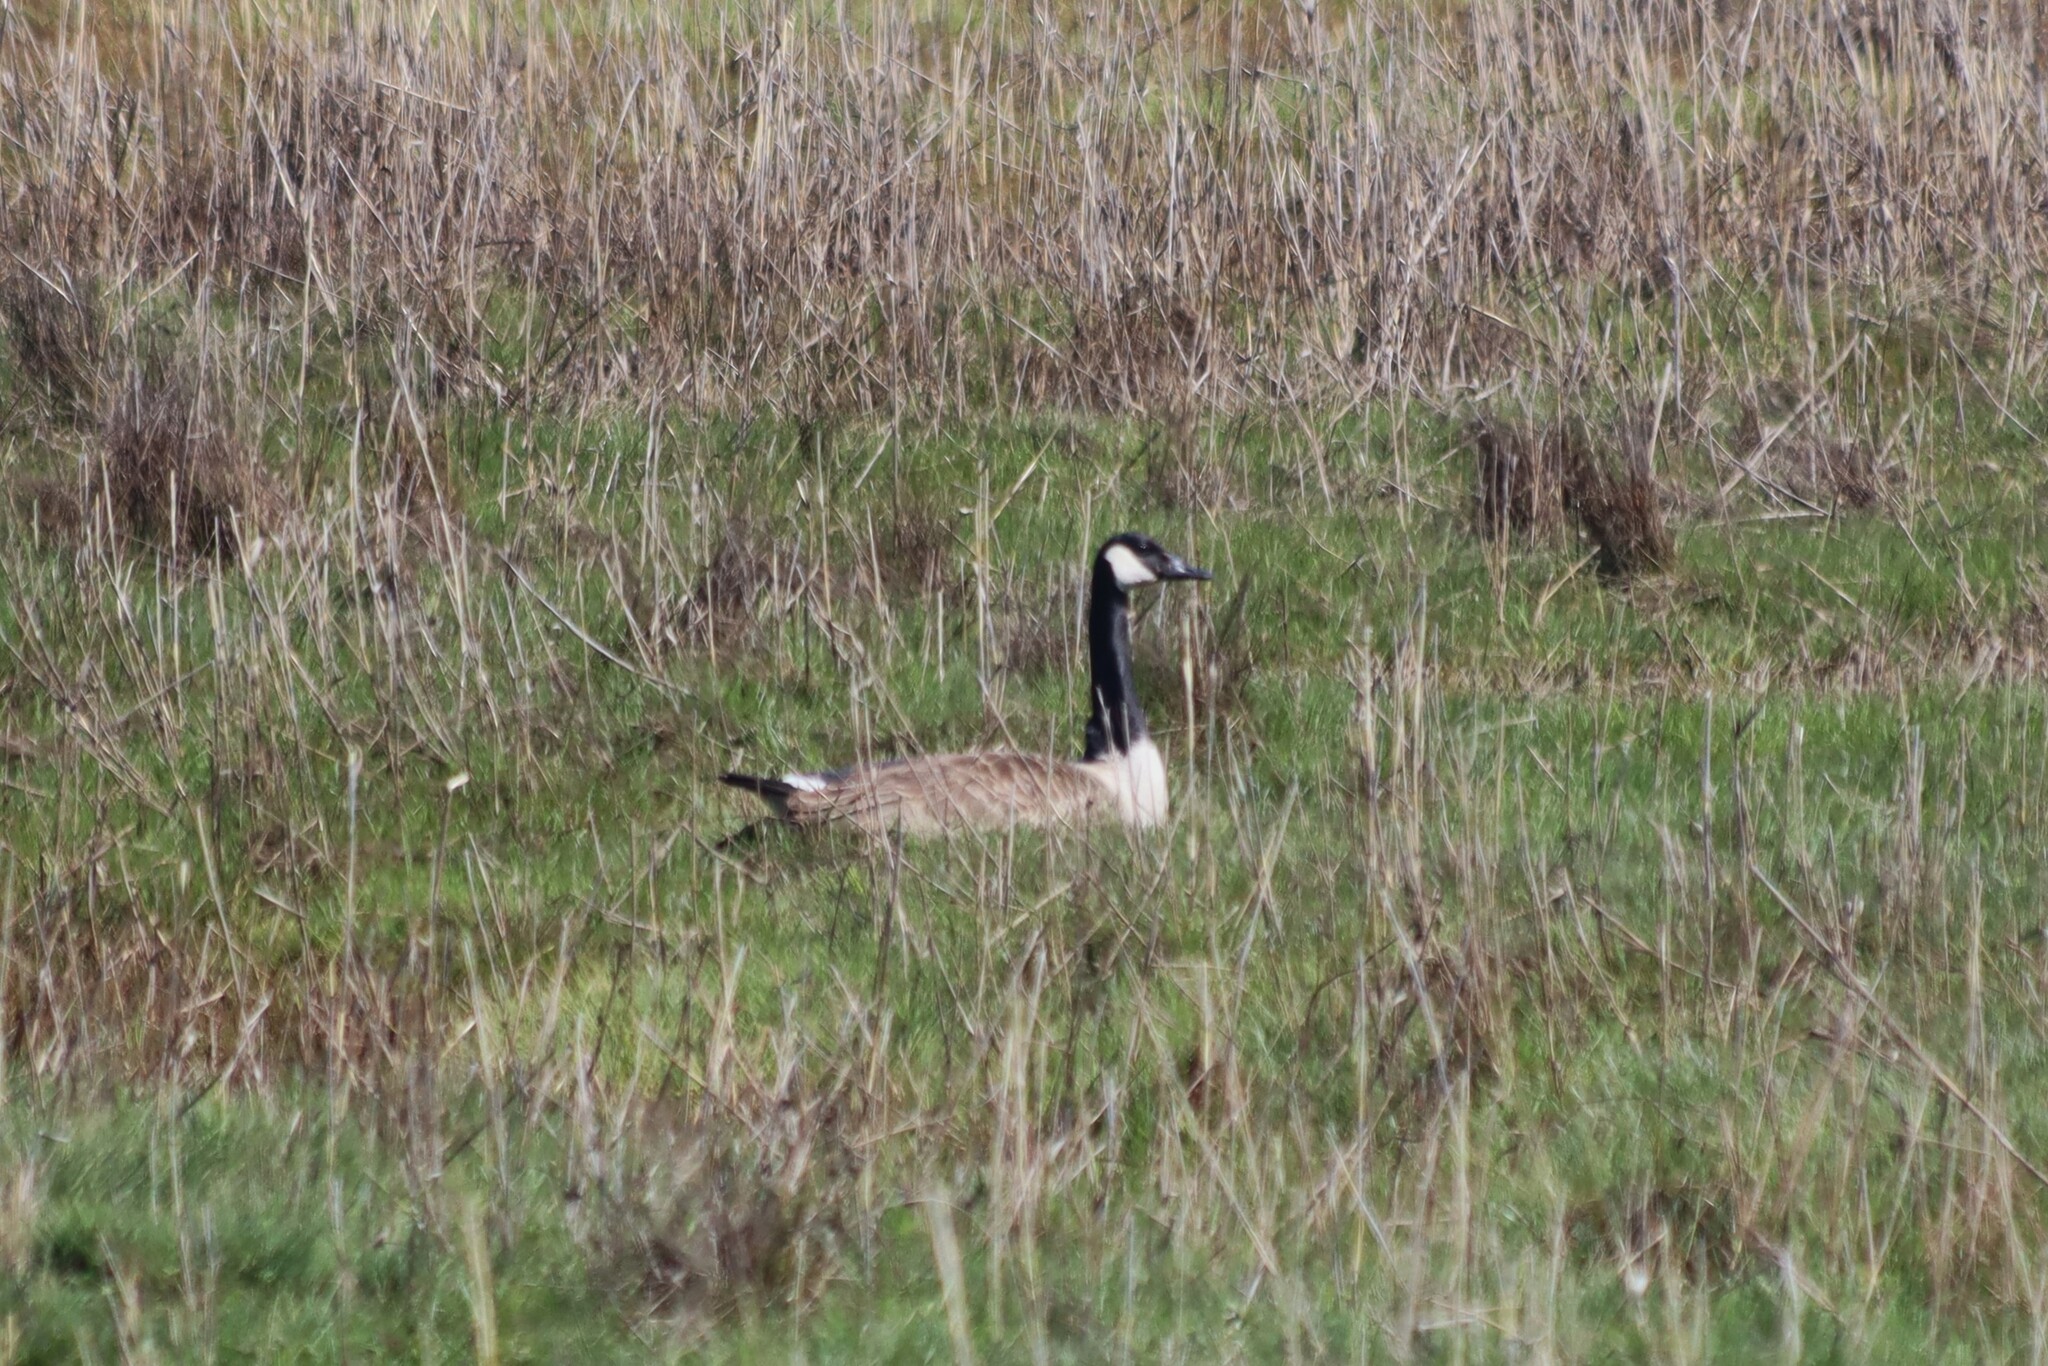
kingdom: Animalia
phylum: Chordata
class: Aves
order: Anseriformes
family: Anatidae
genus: Branta
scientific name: Branta canadensis
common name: Canada goose
